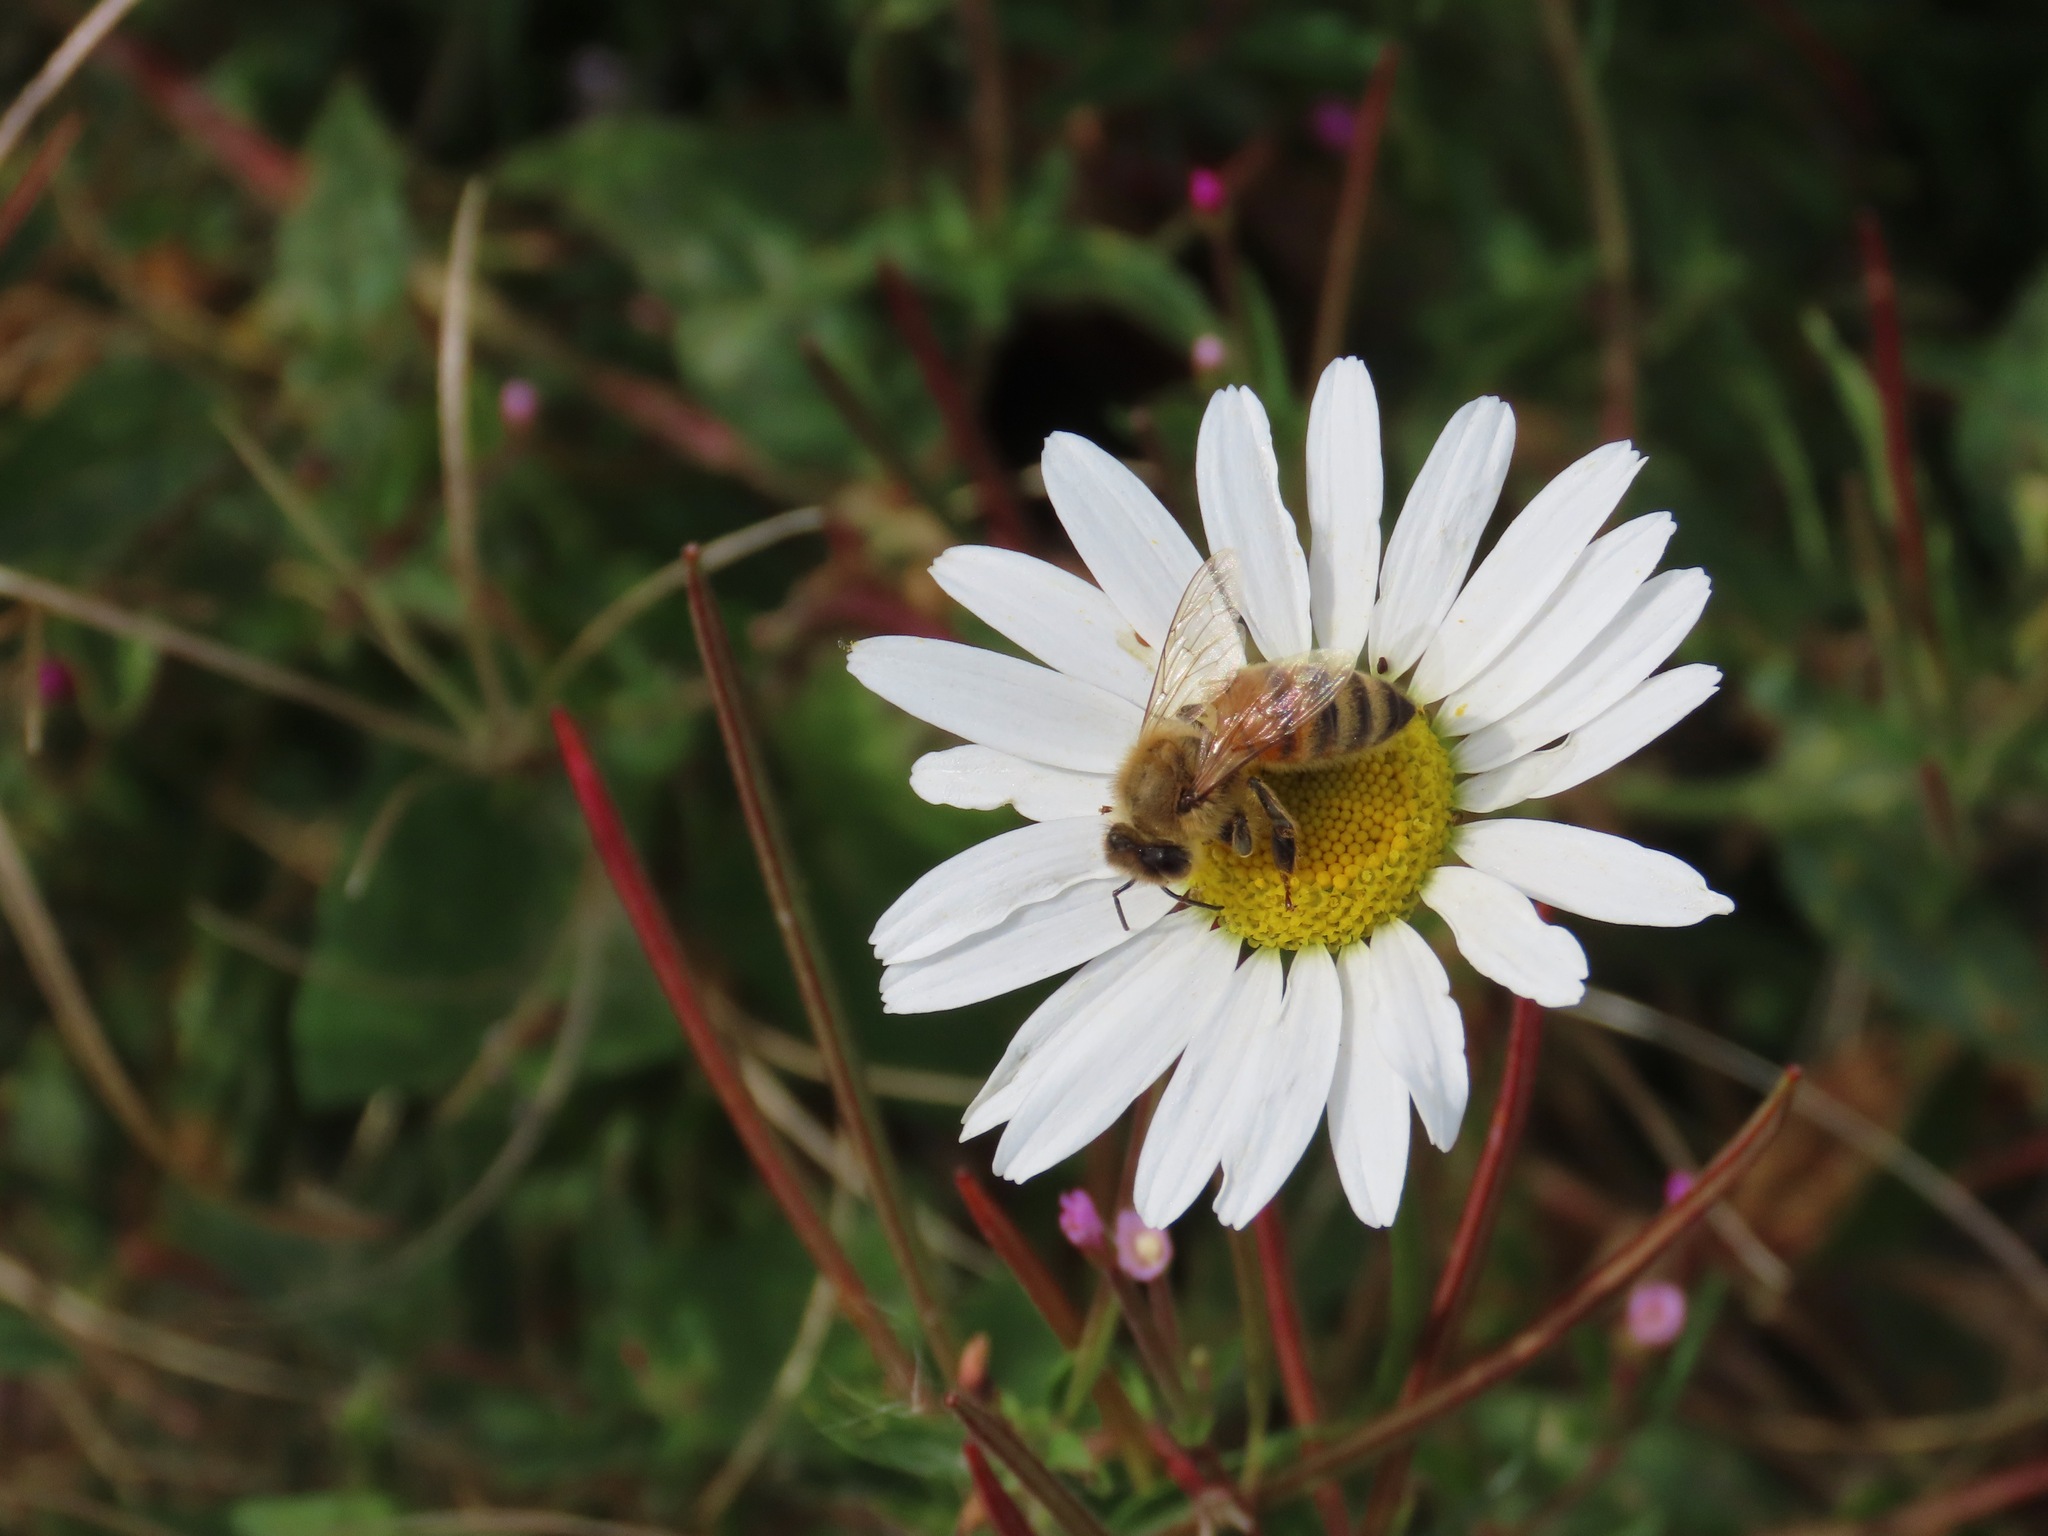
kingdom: Animalia
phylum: Arthropoda
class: Insecta
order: Hymenoptera
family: Apidae
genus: Apis
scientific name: Apis mellifera
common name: Honey bee
